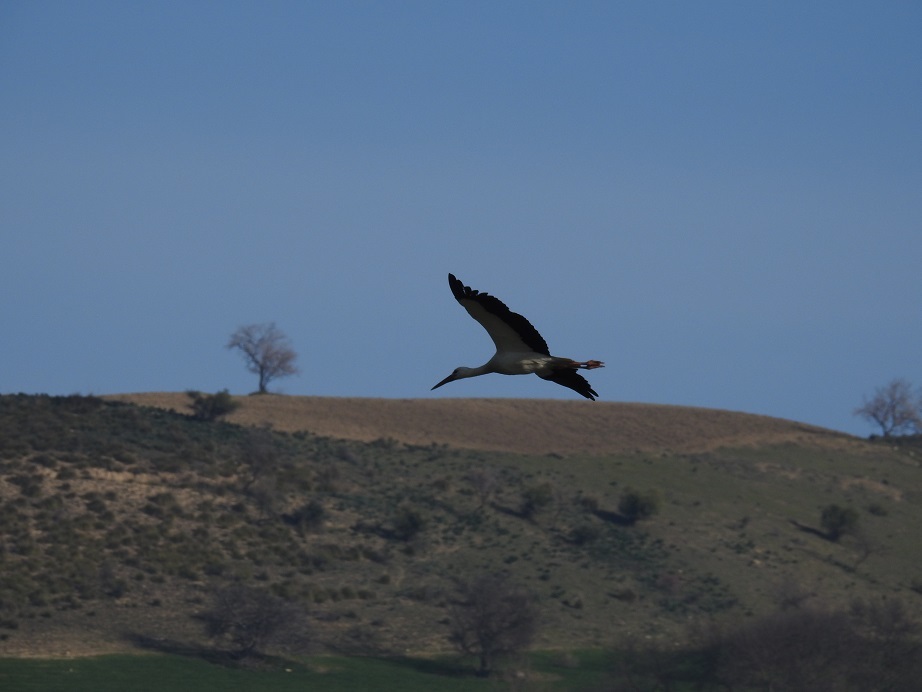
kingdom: Animalia
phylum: Chordata
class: Aves
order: Ciconiiformes
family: Ciconiidae
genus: Ciconia
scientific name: Ciconia ciconia
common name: White stork
